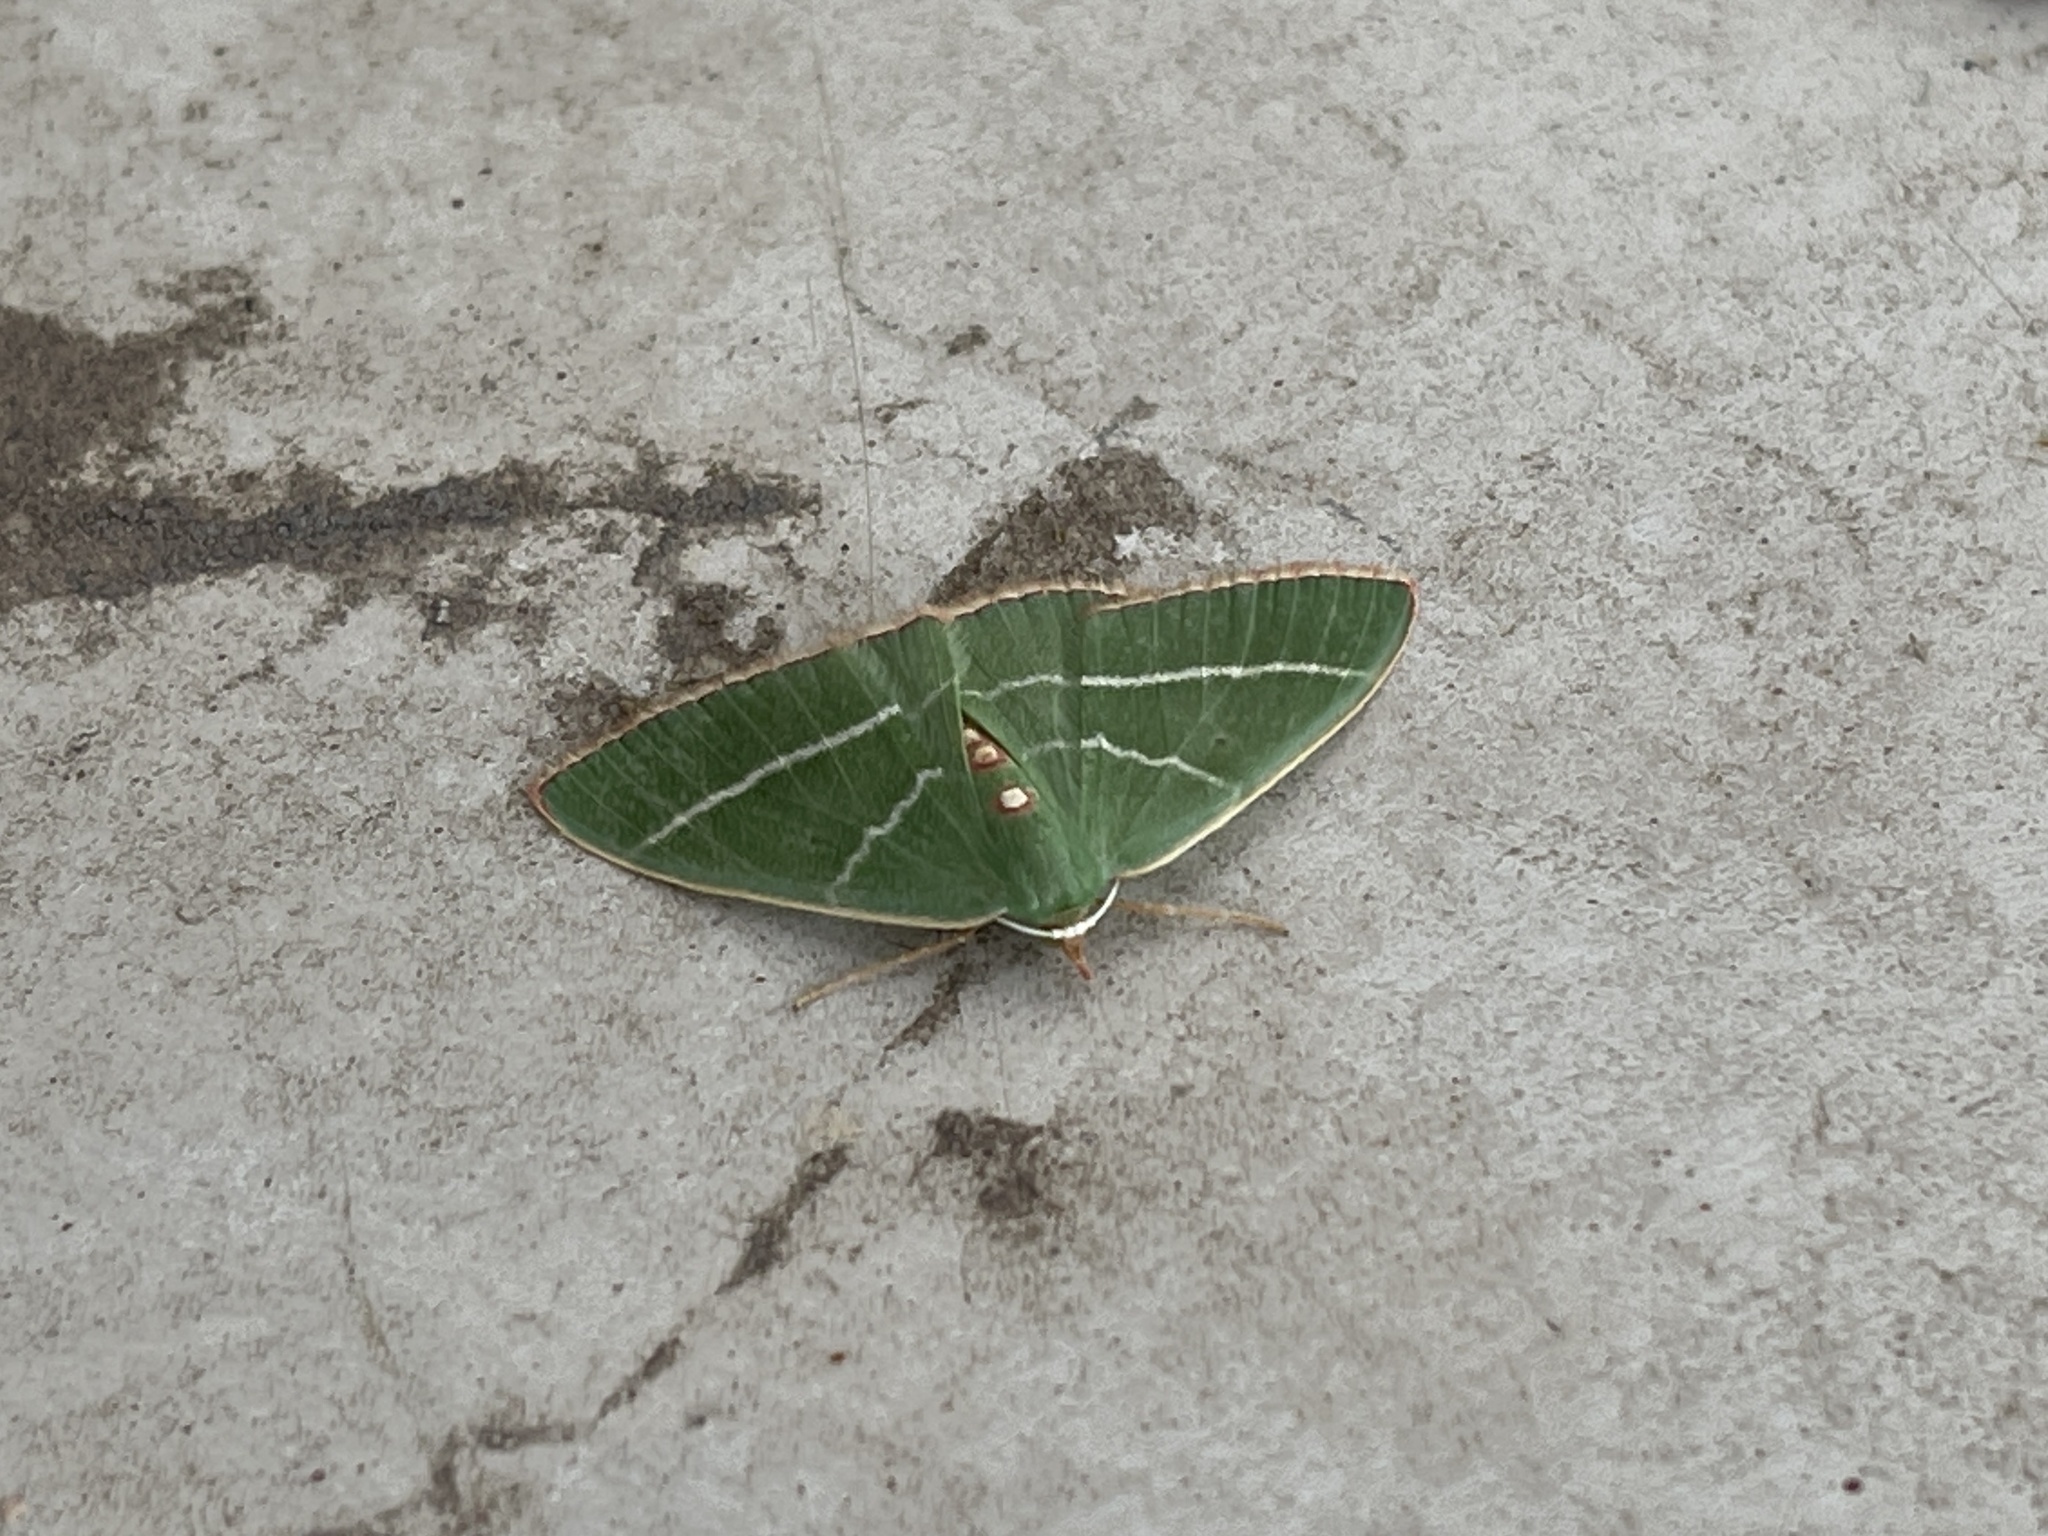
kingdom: Animalia
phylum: Arthropoda
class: Insecta
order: Lepidoptera
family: Geometridae
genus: Nemoria
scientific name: Nemoria obliqua
